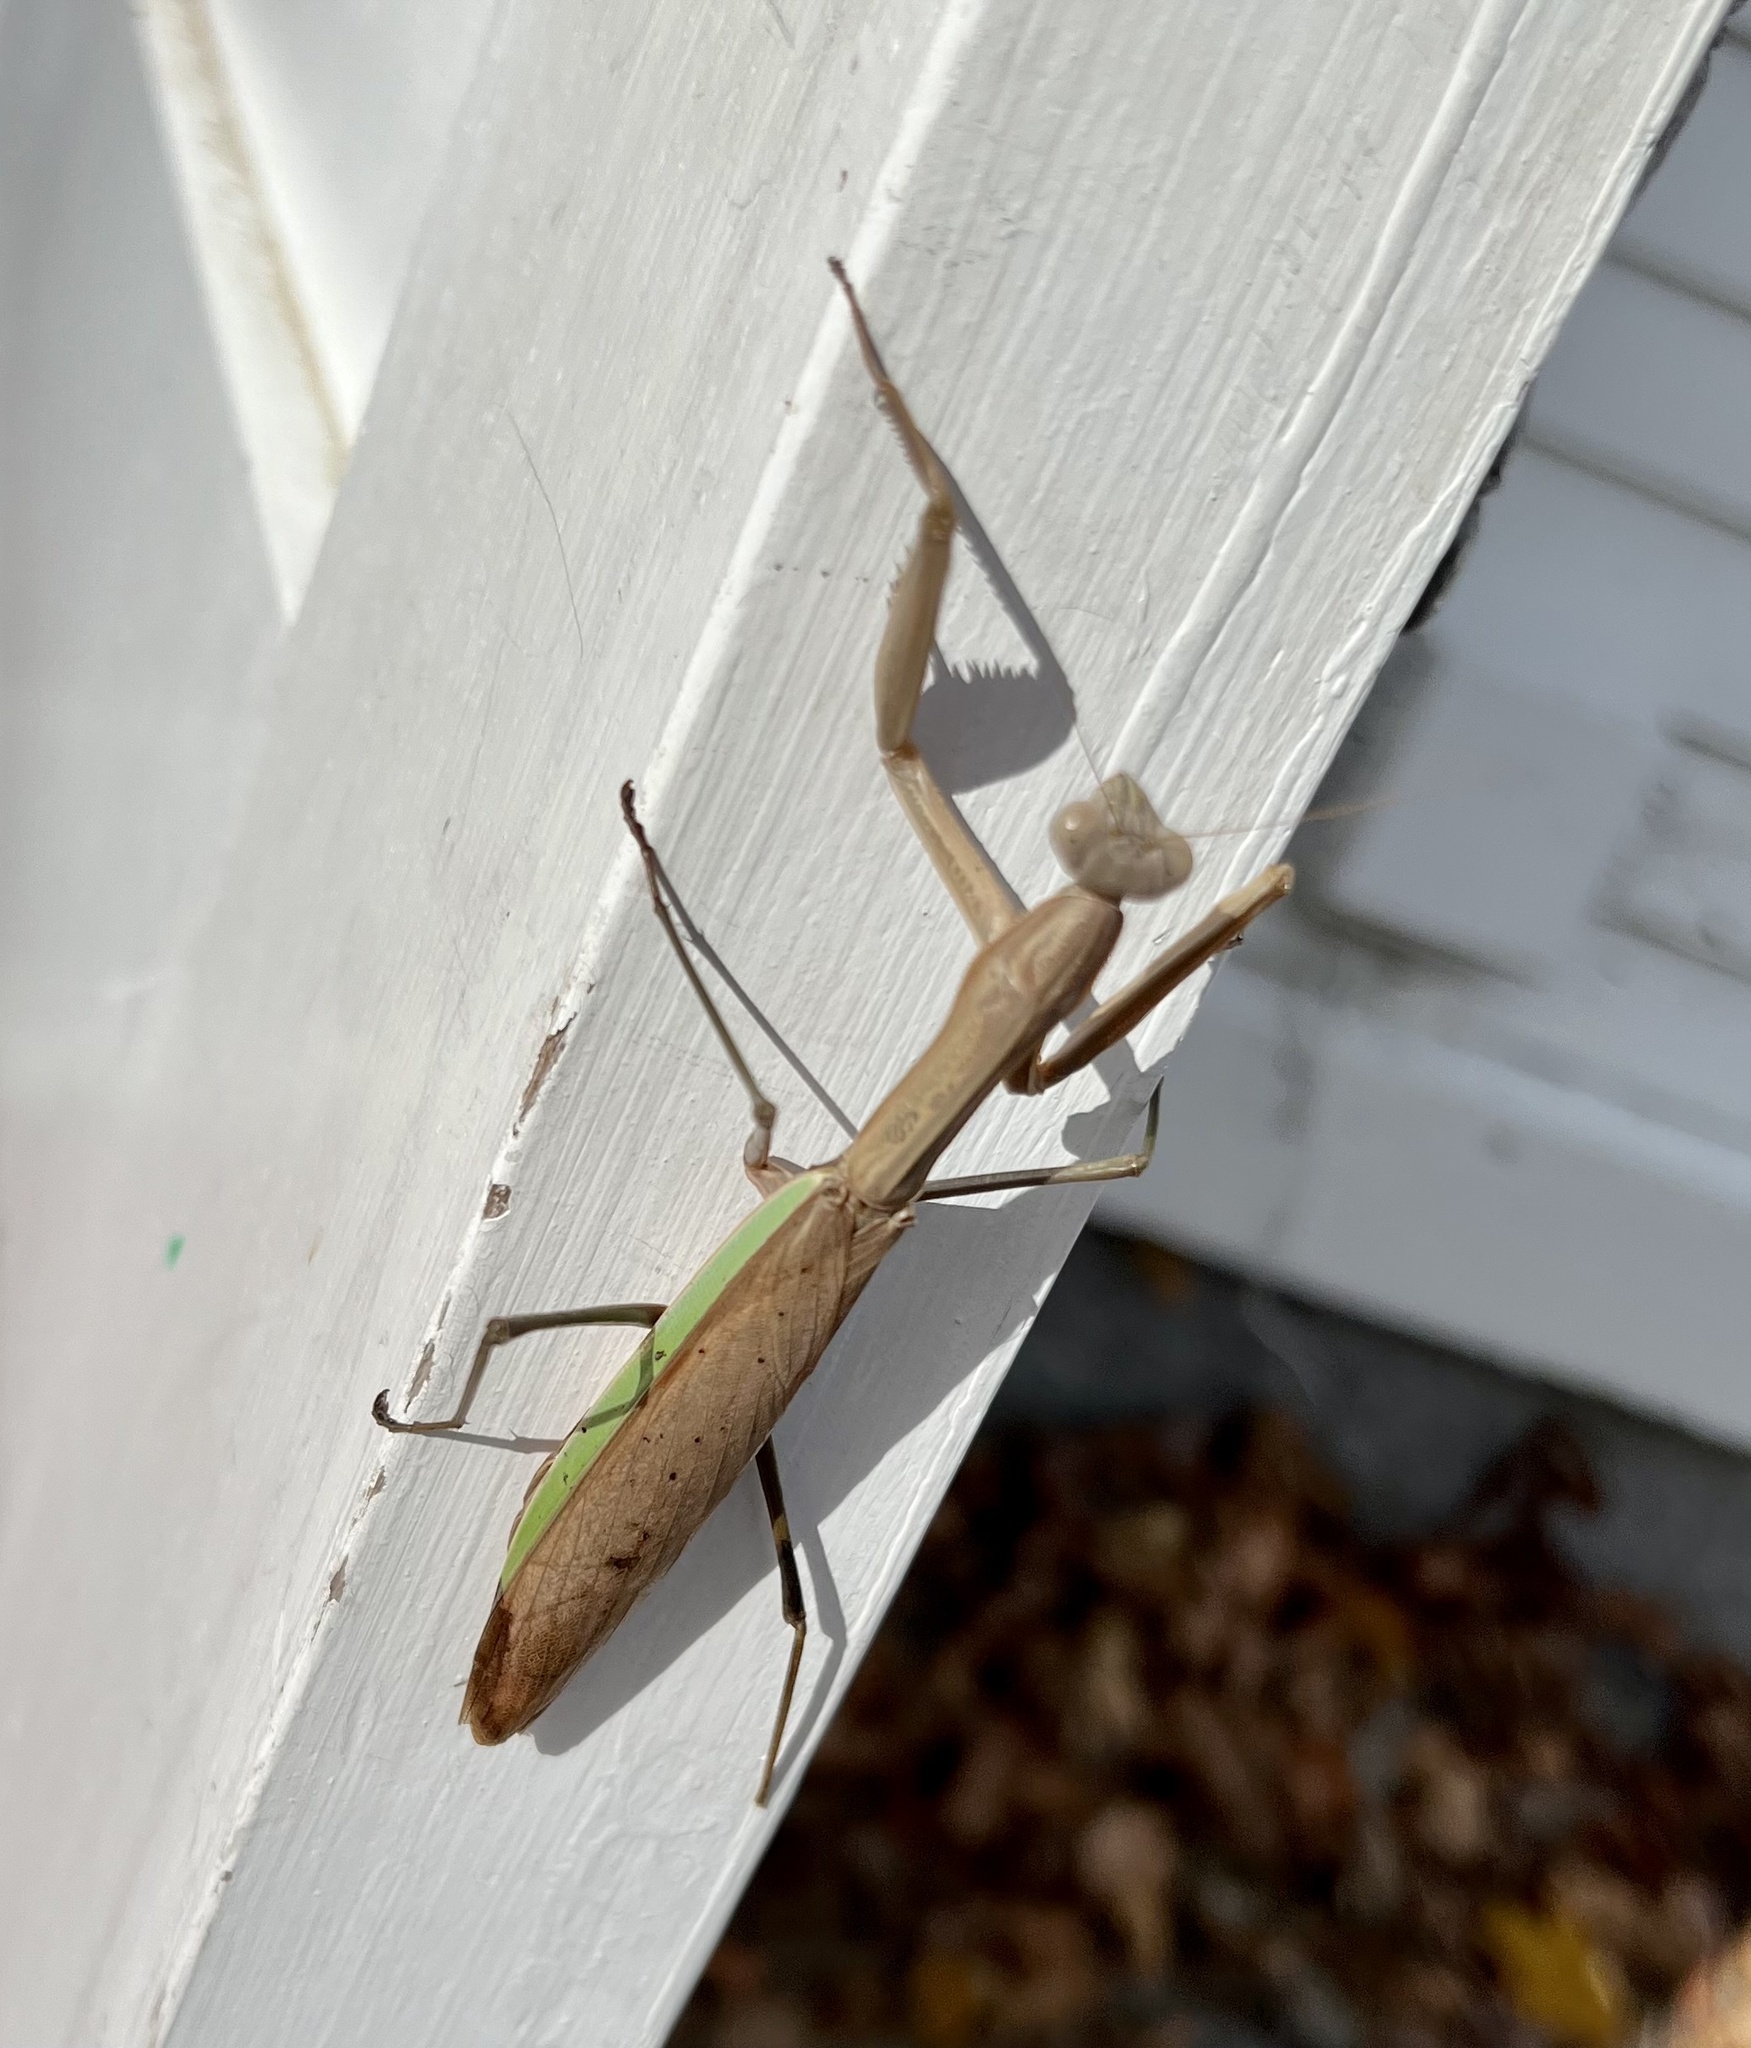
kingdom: Animalia
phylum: Arthropoda
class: Insecta
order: Mantodea
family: Mantidae
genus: Tenodera
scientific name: Tenodera sinensis
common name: Chinese mantis
